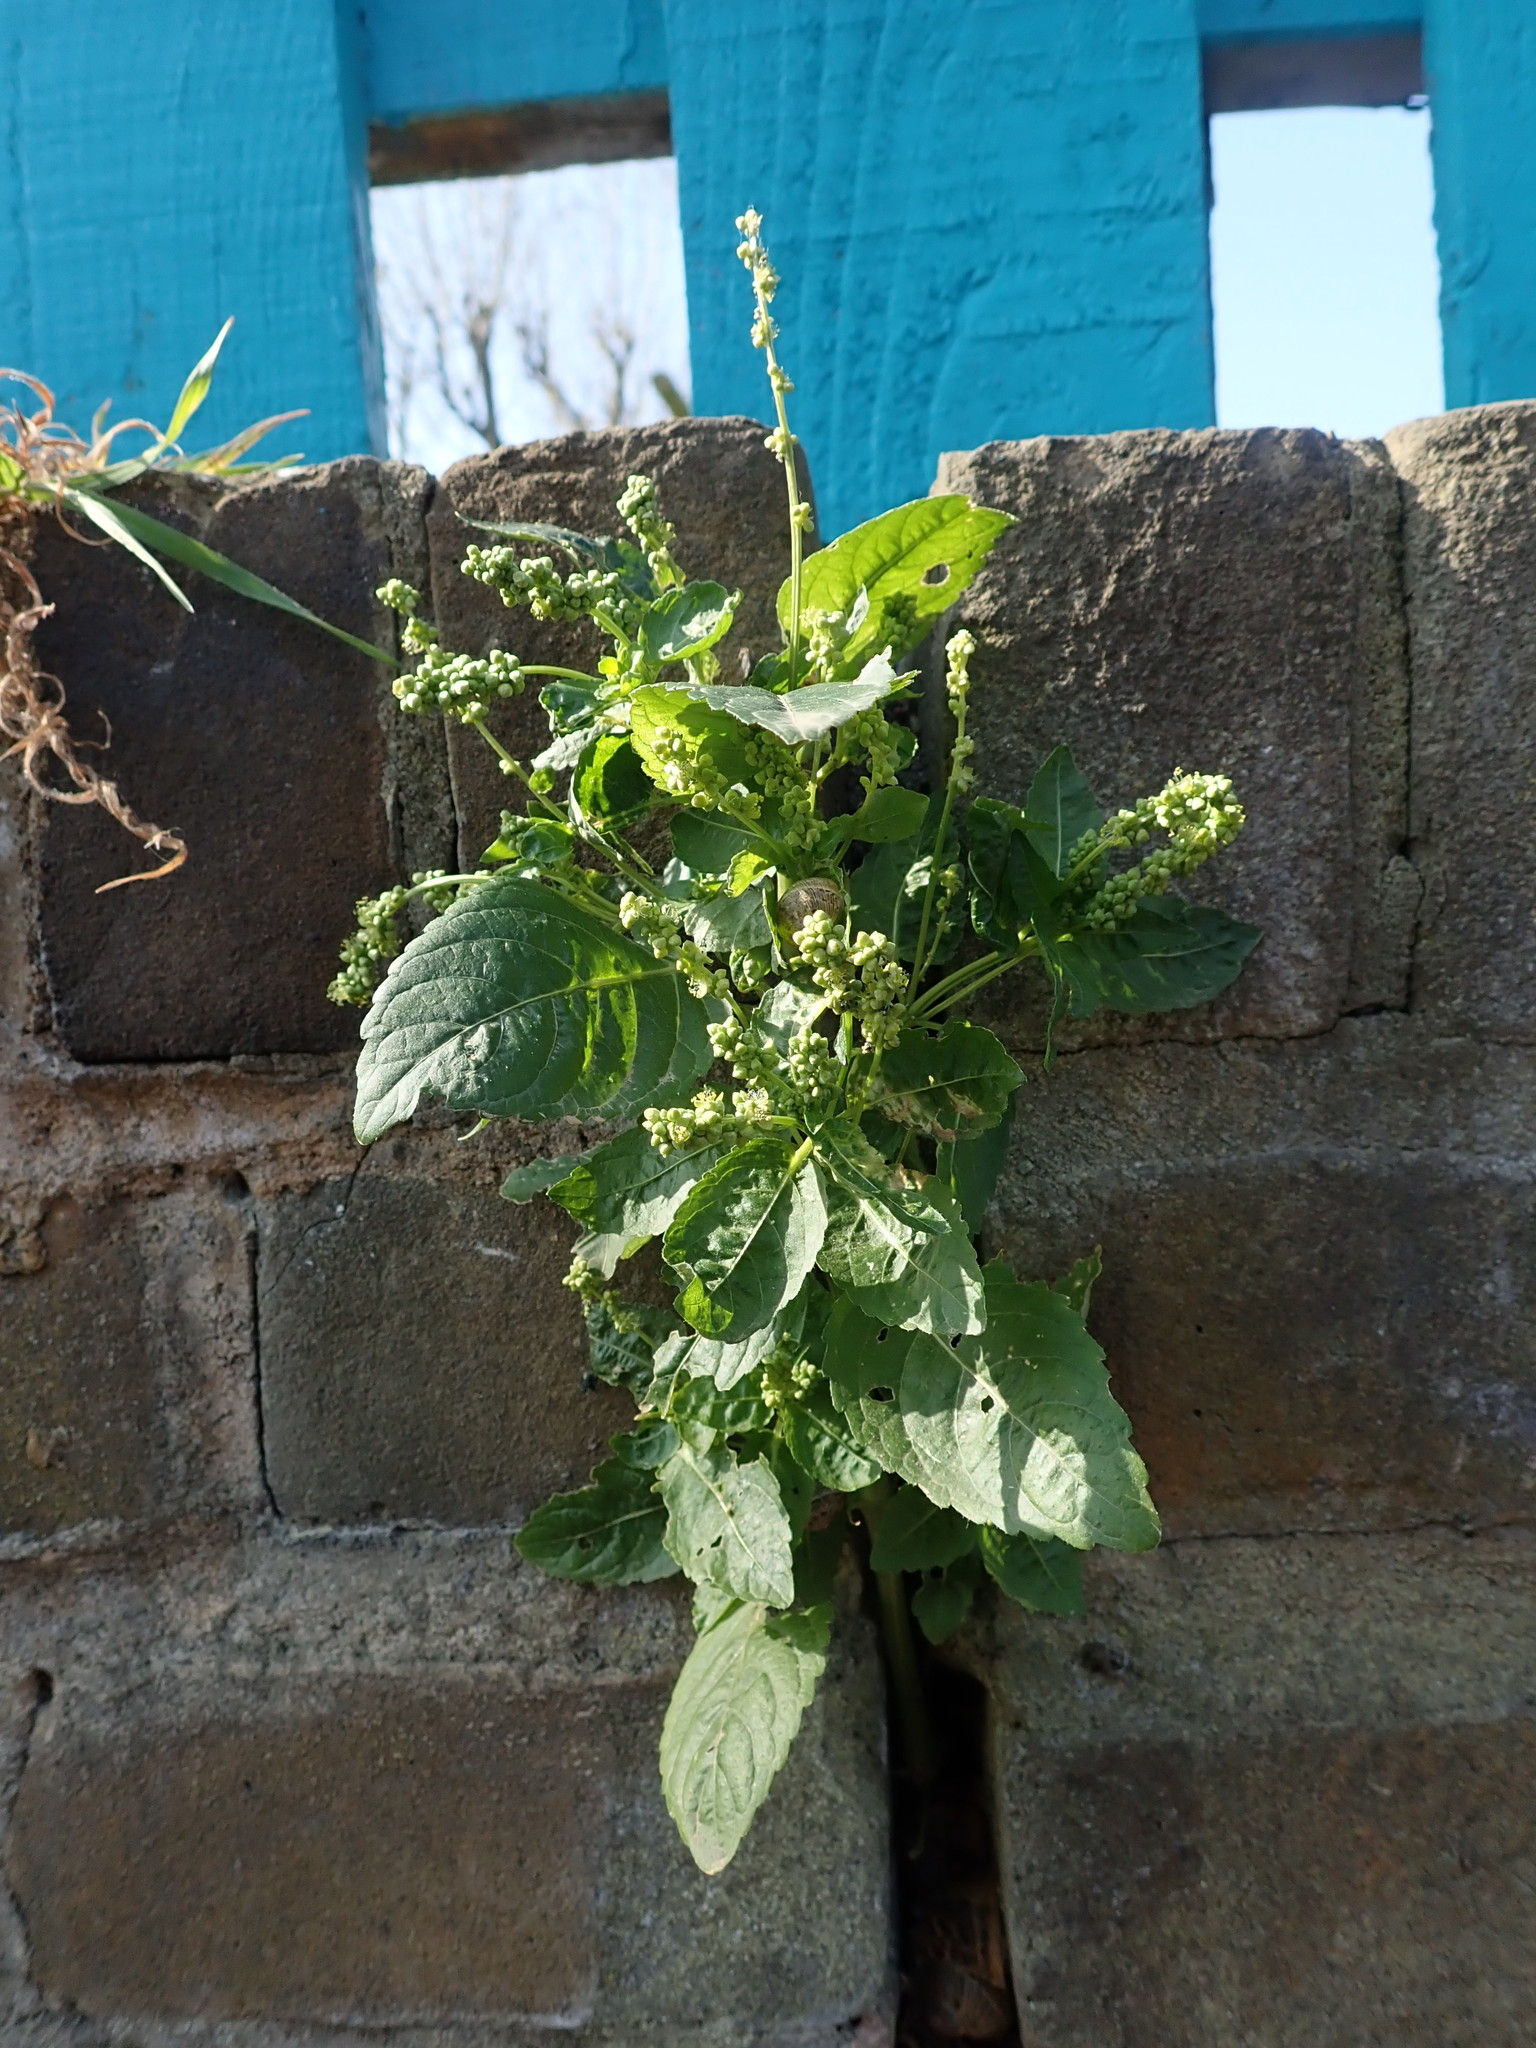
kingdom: Plantae
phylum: Tracheophyta
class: Magnoliopsida
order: Malpighiales
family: Euphorbiaceae
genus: Mercurialis
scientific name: Mercurialis annua
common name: Annual mercury
